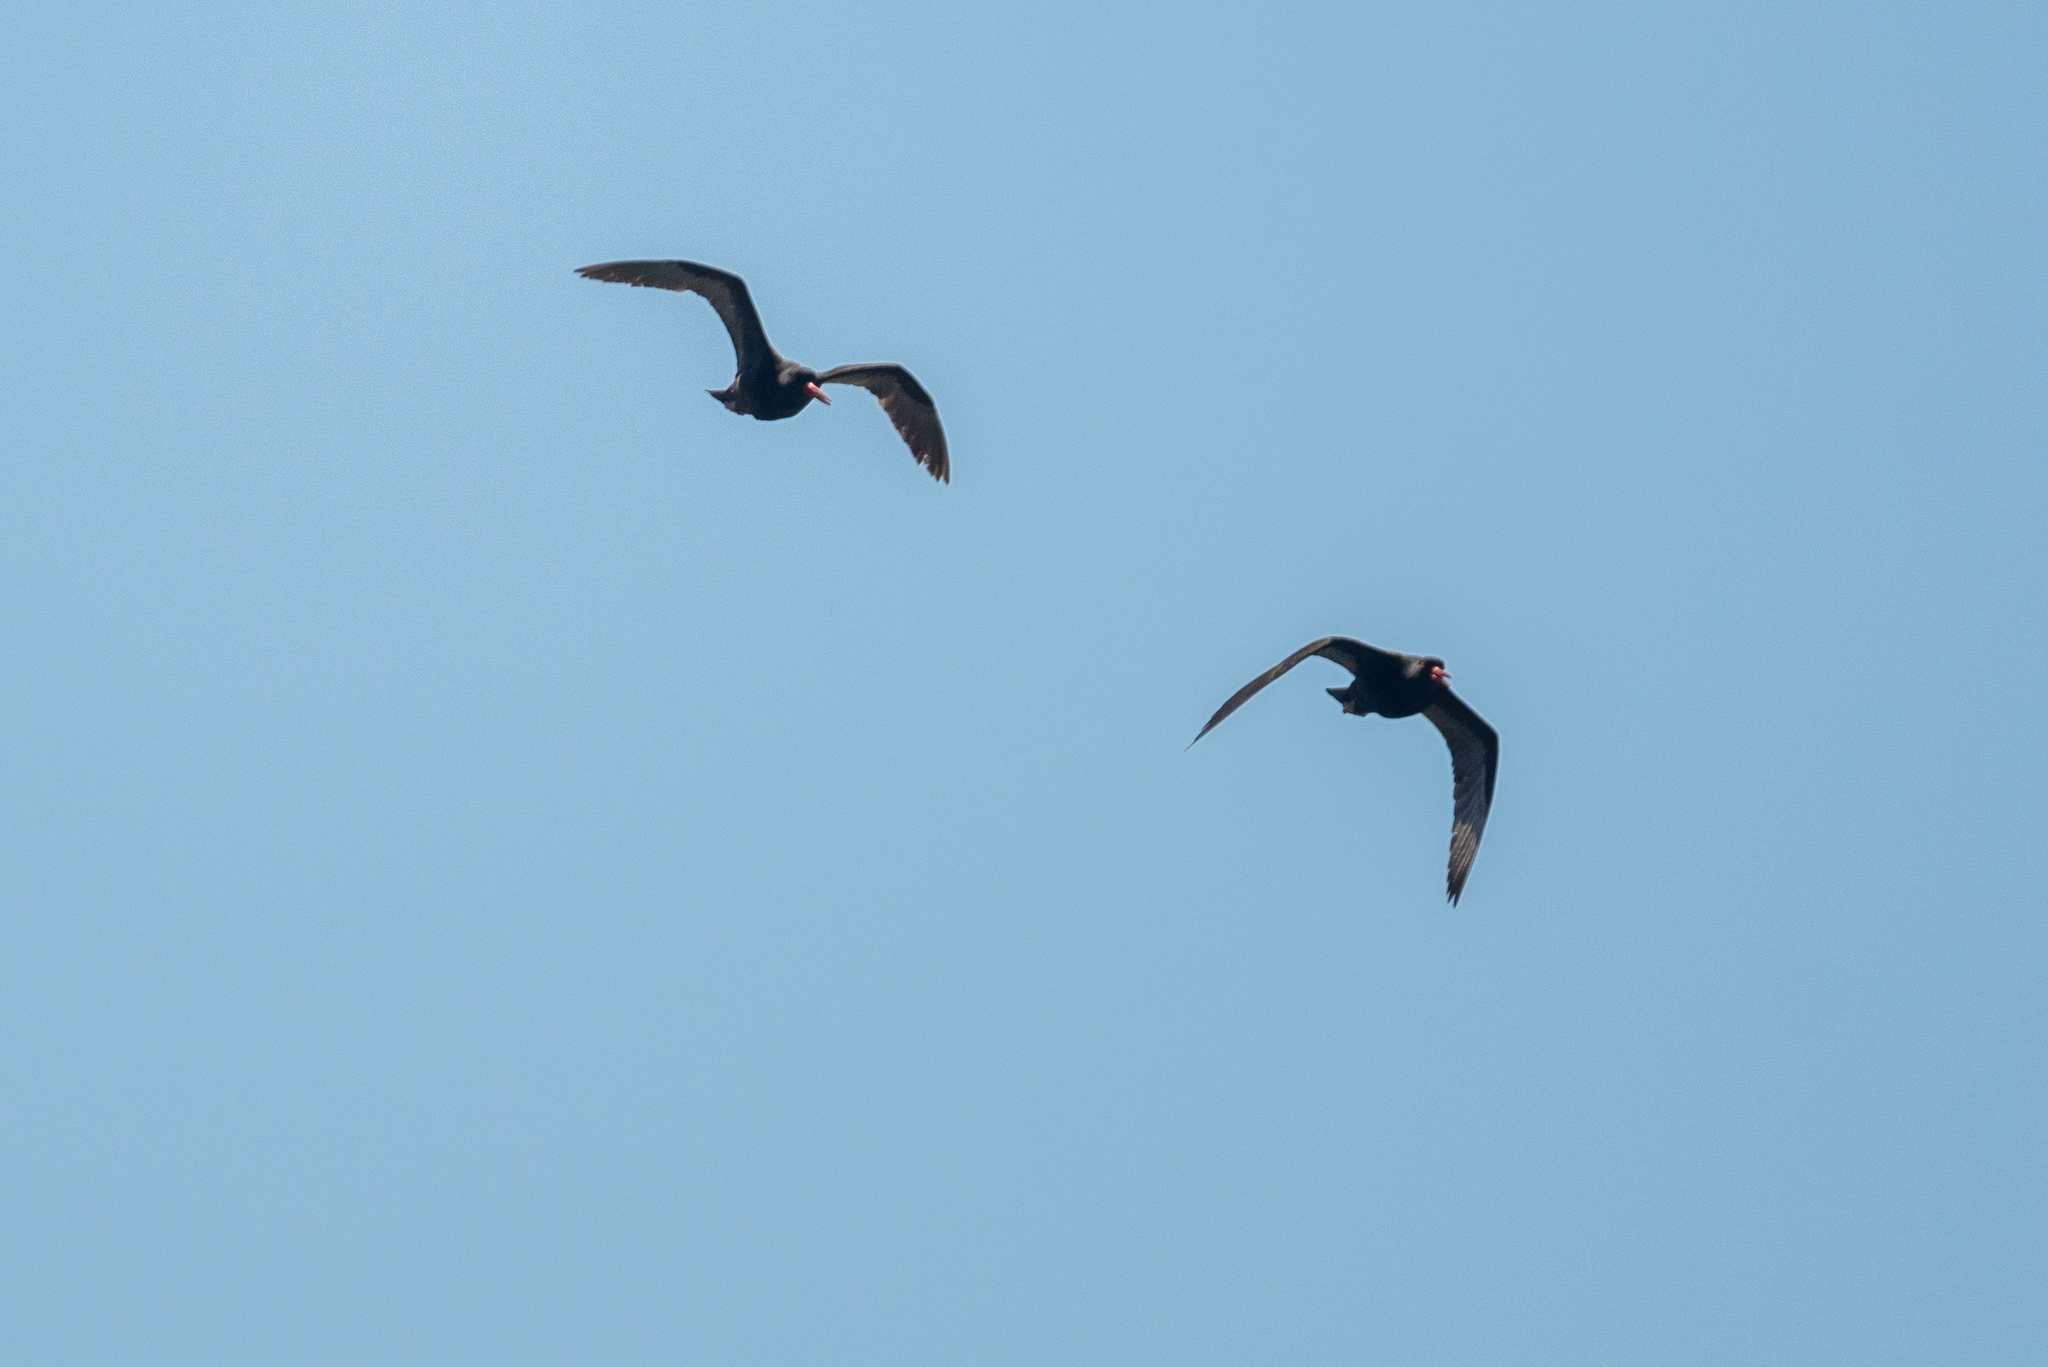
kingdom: Animalia
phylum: Chordata
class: Aves
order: Charadriiformes
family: Haematopodidae
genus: Haematopus
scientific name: Haematopus bachmani
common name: Black oystercatcher
